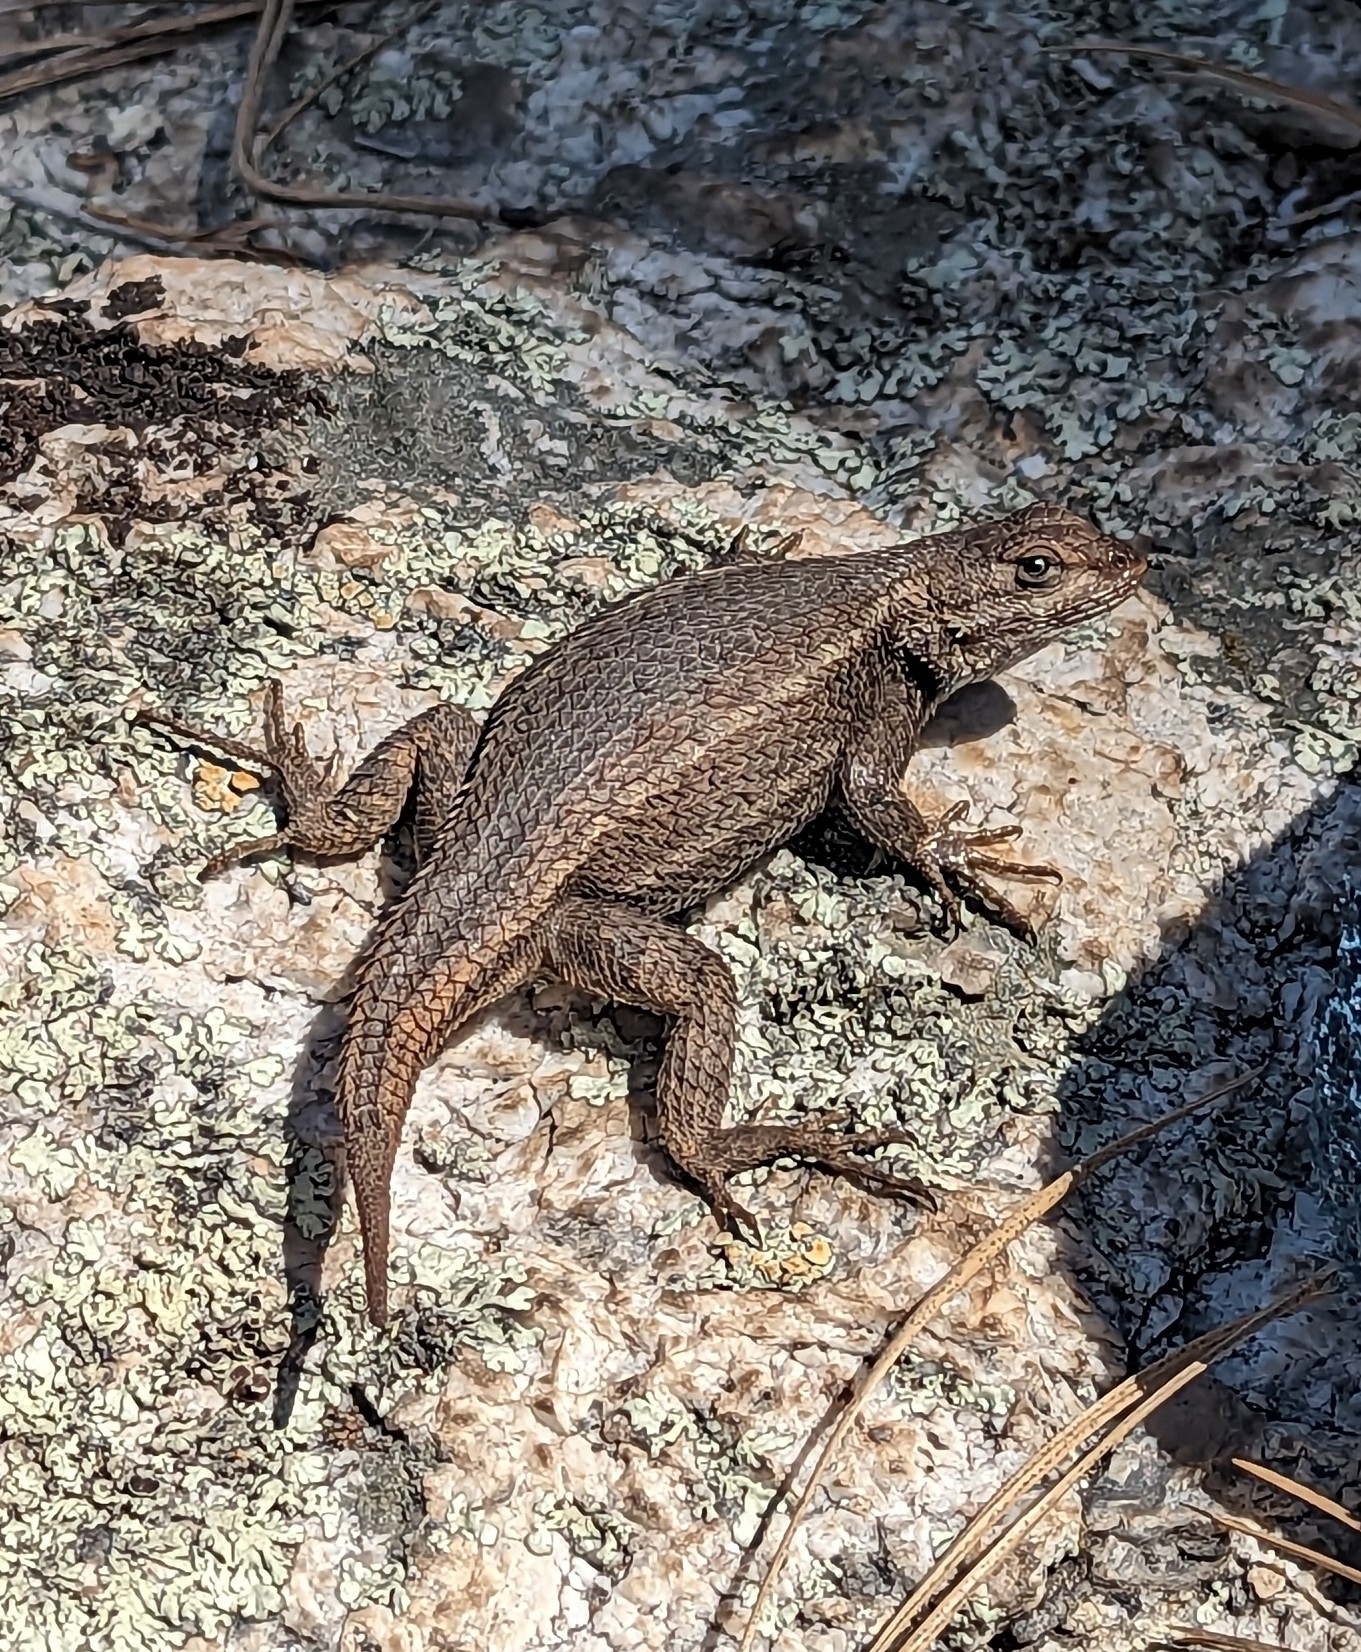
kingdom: Animalia
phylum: Chordata
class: Squamata
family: Phrynosomatidae
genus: Sceloporus
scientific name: Sceloporus cowlesi
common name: White sands prairie lizard
